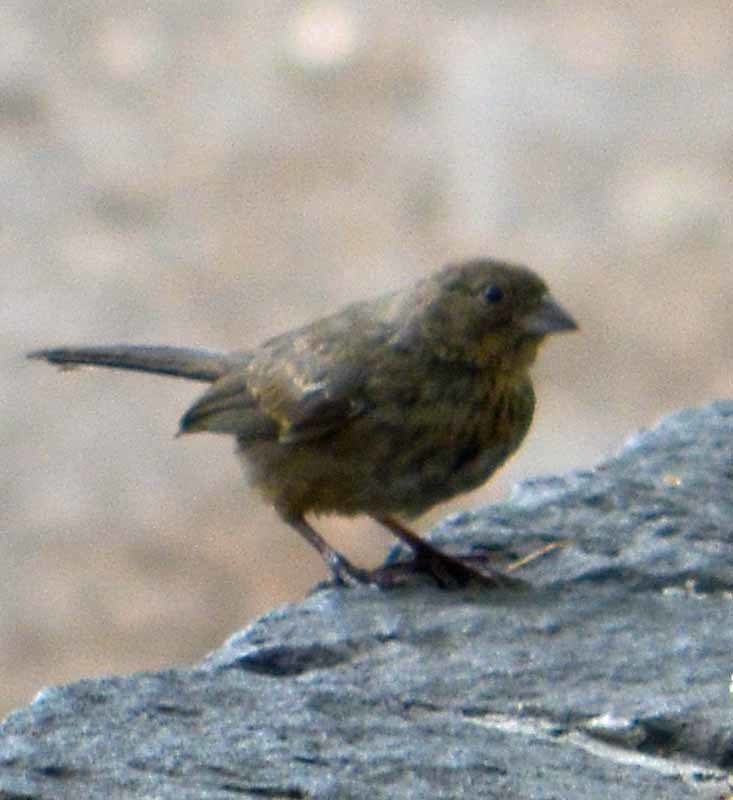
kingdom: Animalia
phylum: Chordata
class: Aves
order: Passeriformes
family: Passerellidae
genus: Melozone
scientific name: Melozone fusca
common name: Canyon towhee
